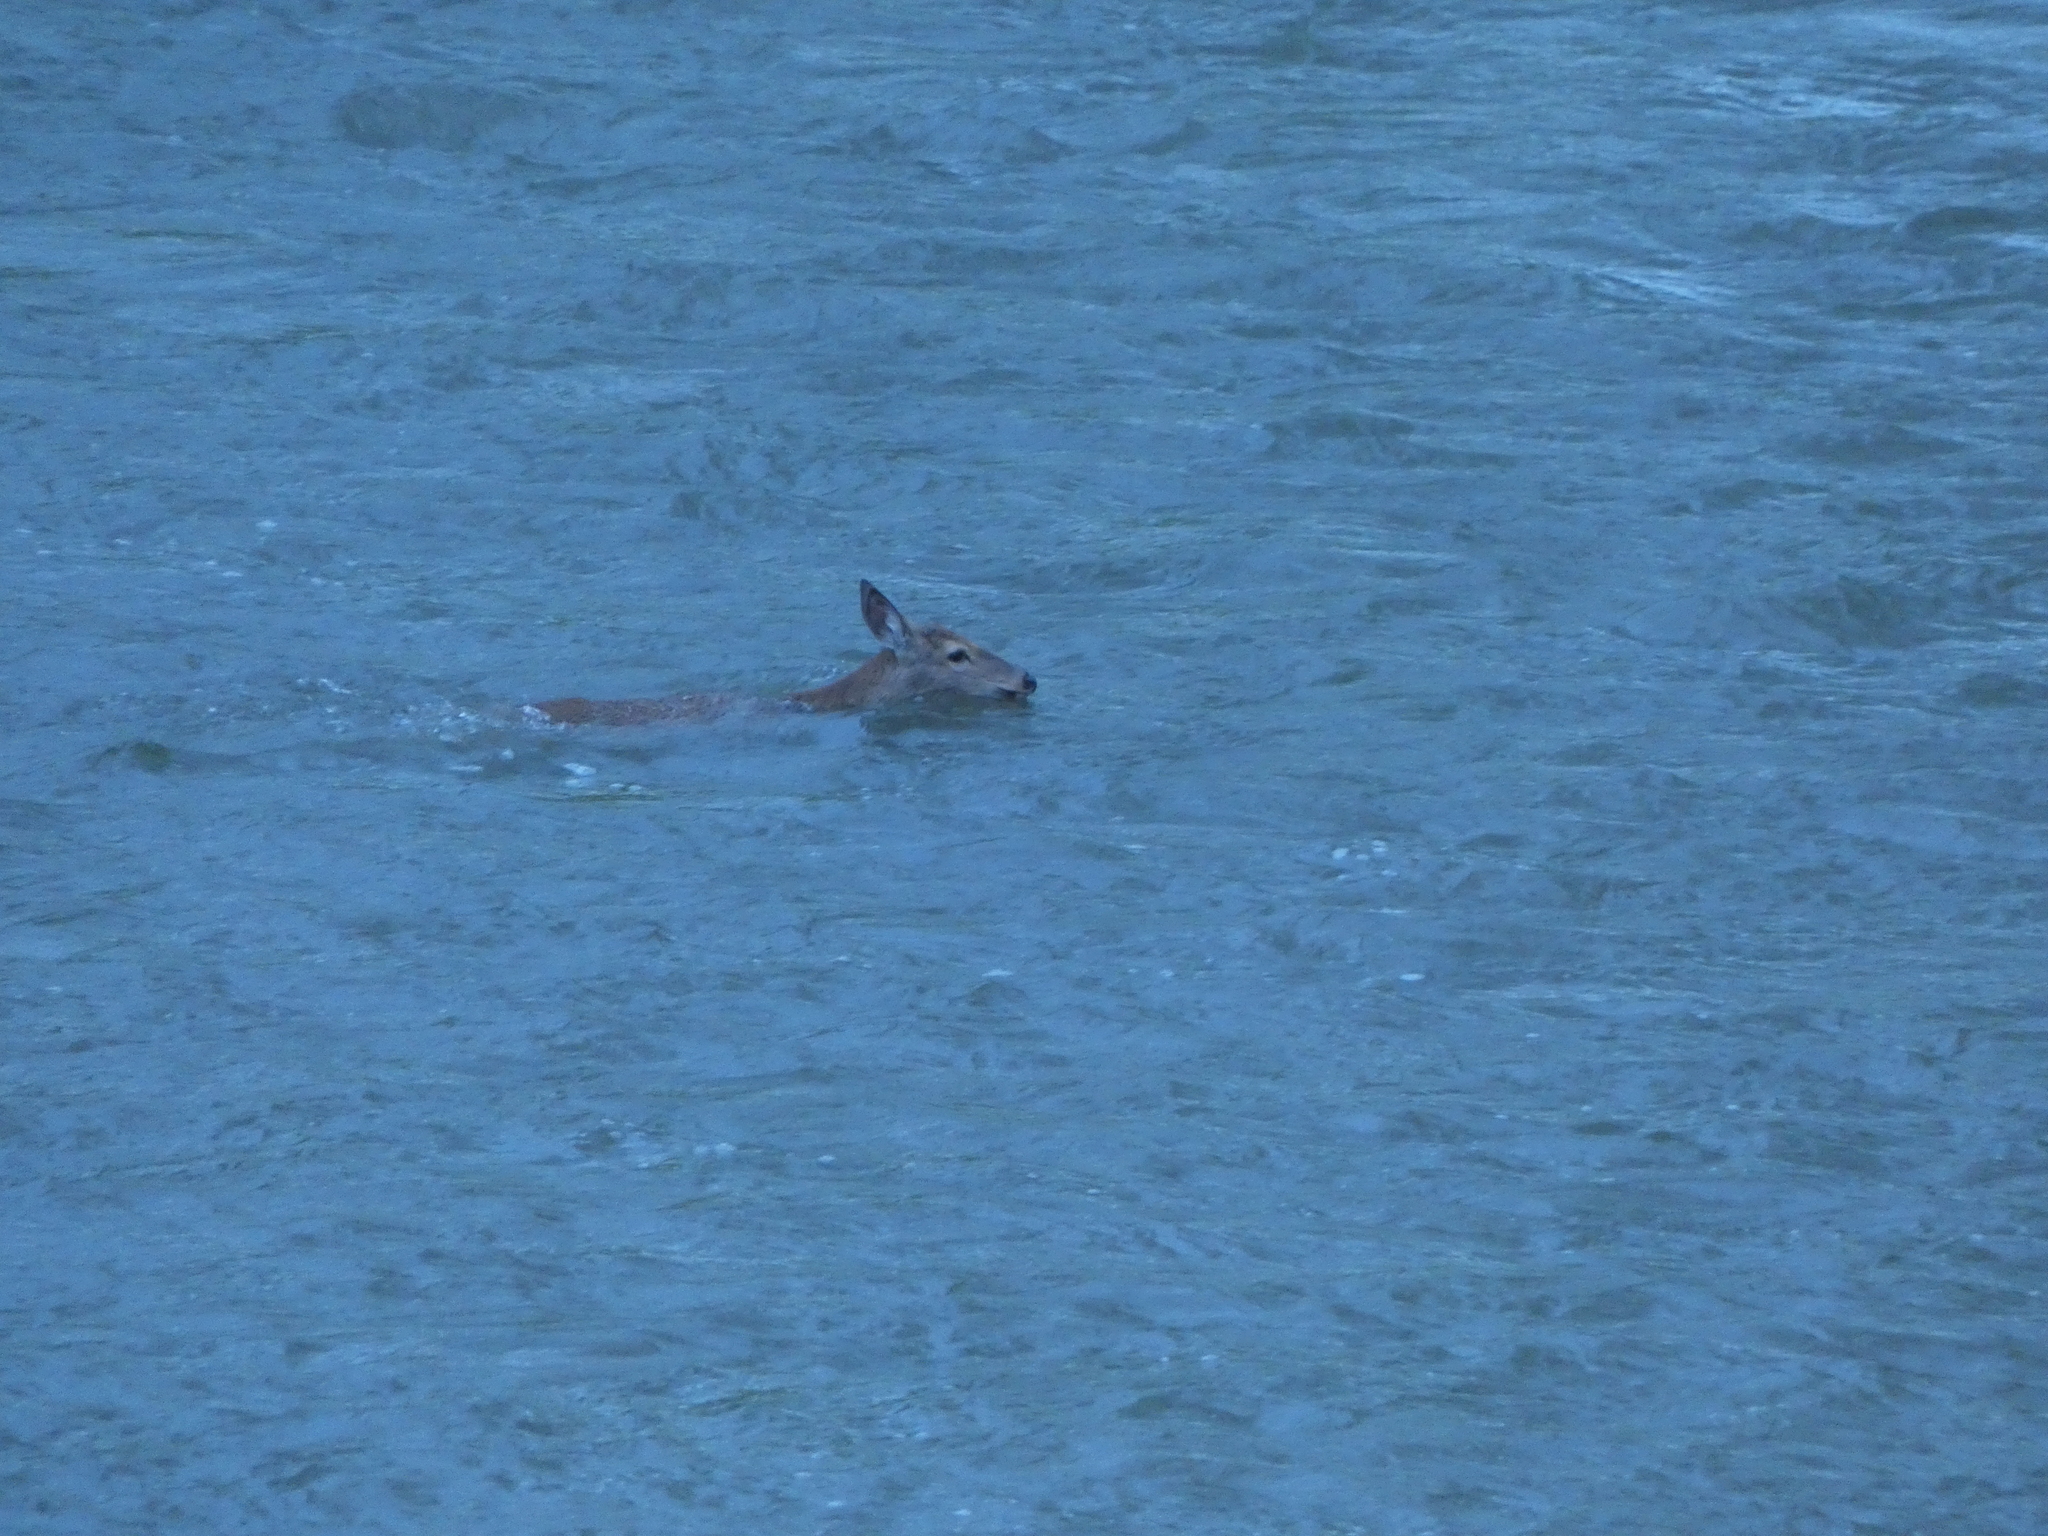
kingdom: Animalia
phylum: Chordata
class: Mammalia
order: Artiodactyla
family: Cervidae
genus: Odocoileus
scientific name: Odocoileus virginianus
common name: White-tailed deer
